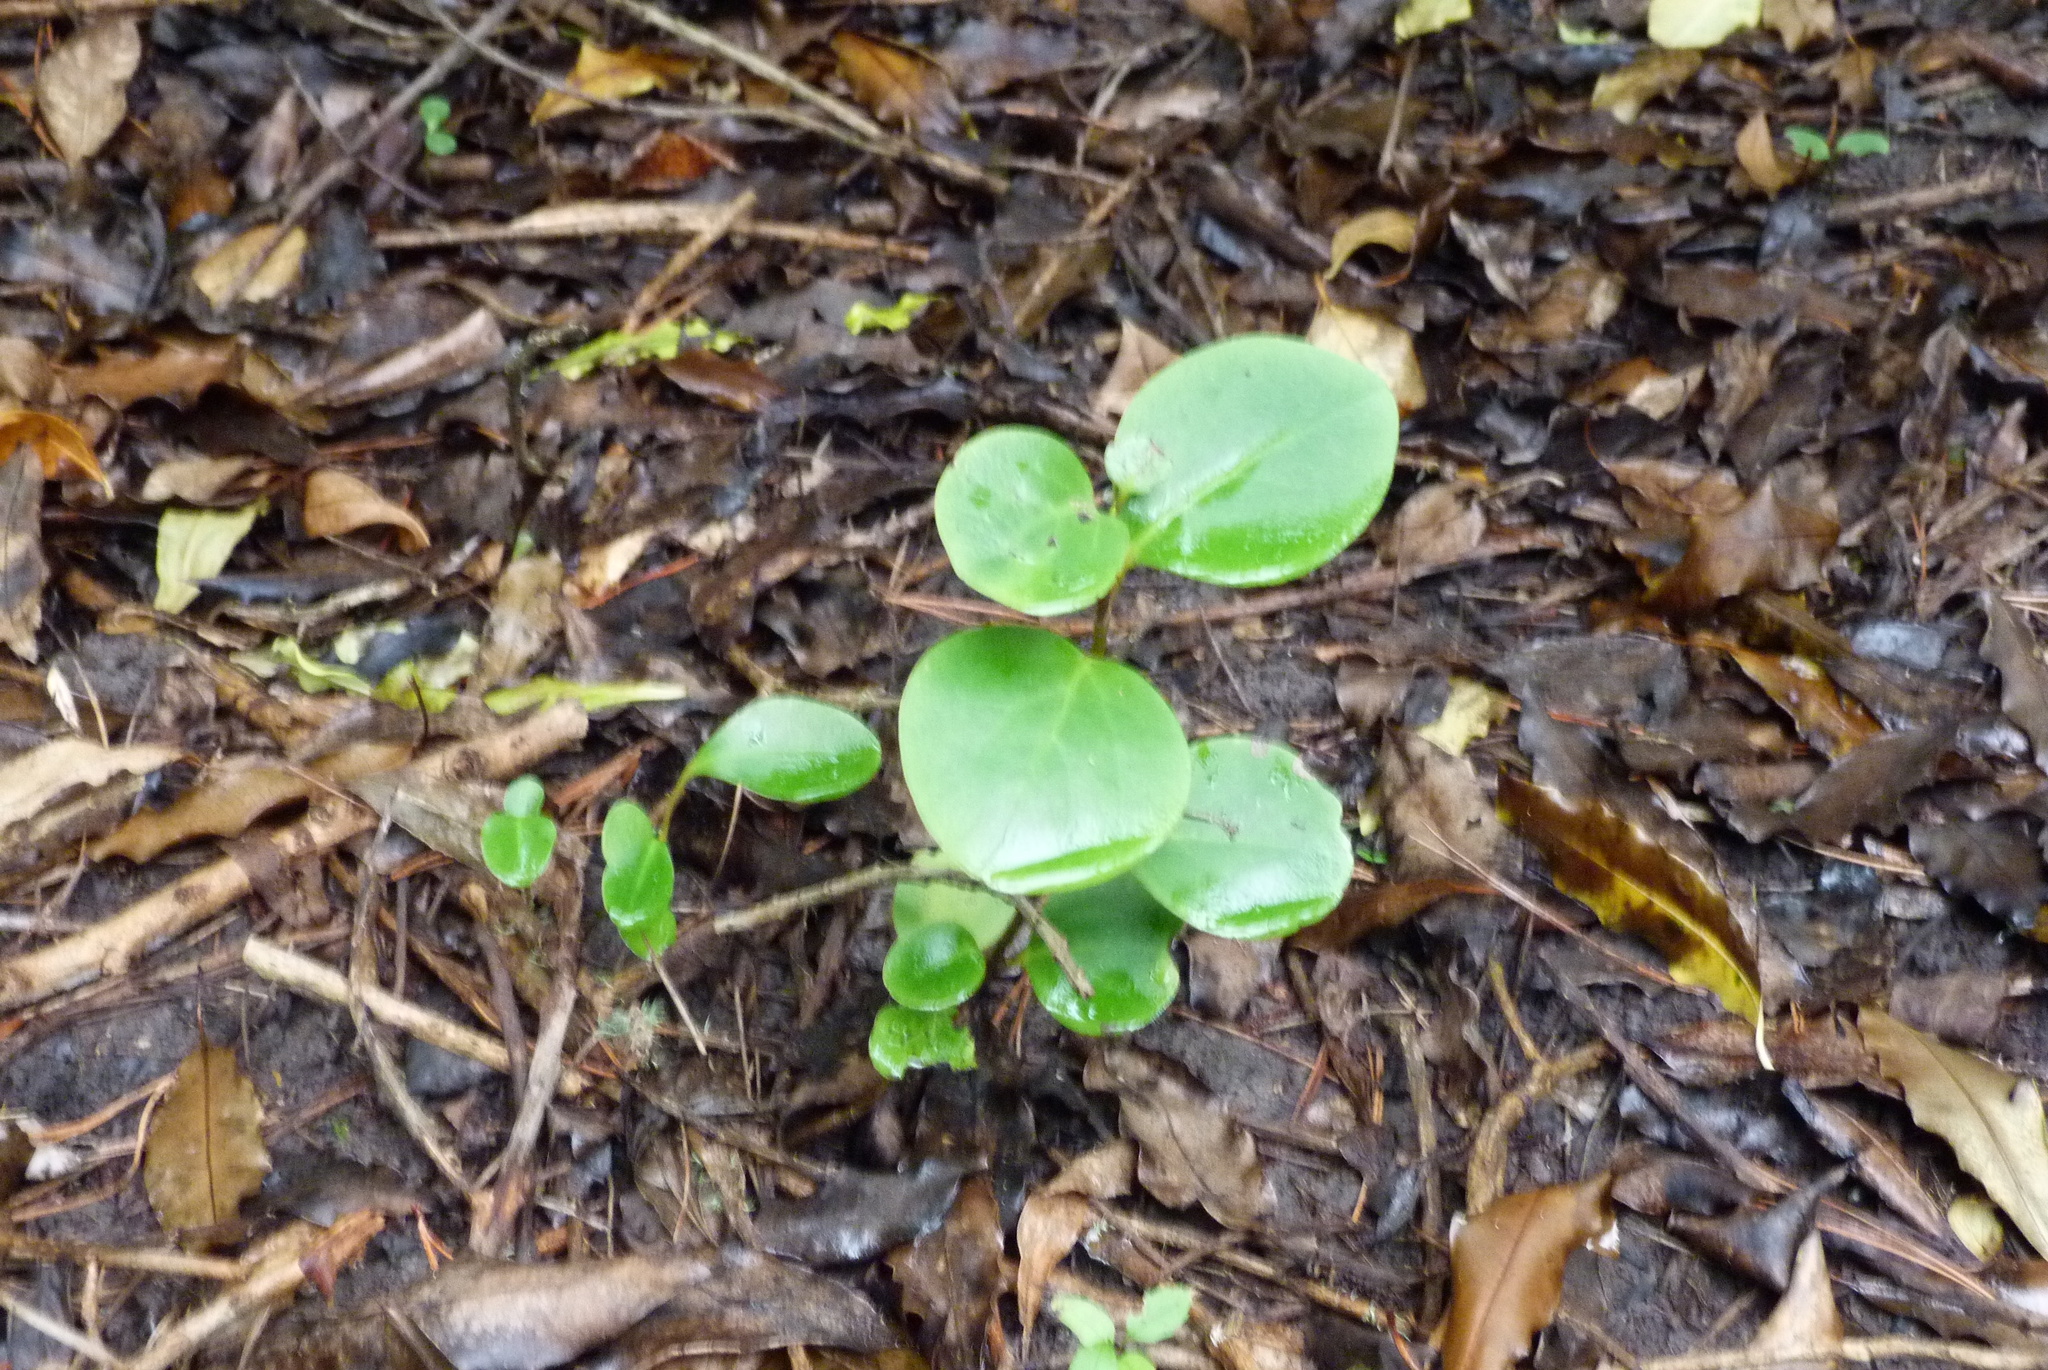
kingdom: Plantae
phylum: Tracheophyta
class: Magnoliopsida
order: Apiales
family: Griseliniaceae
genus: Griselinia
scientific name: Griselinia littoralis
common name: New zealand broadleaf
